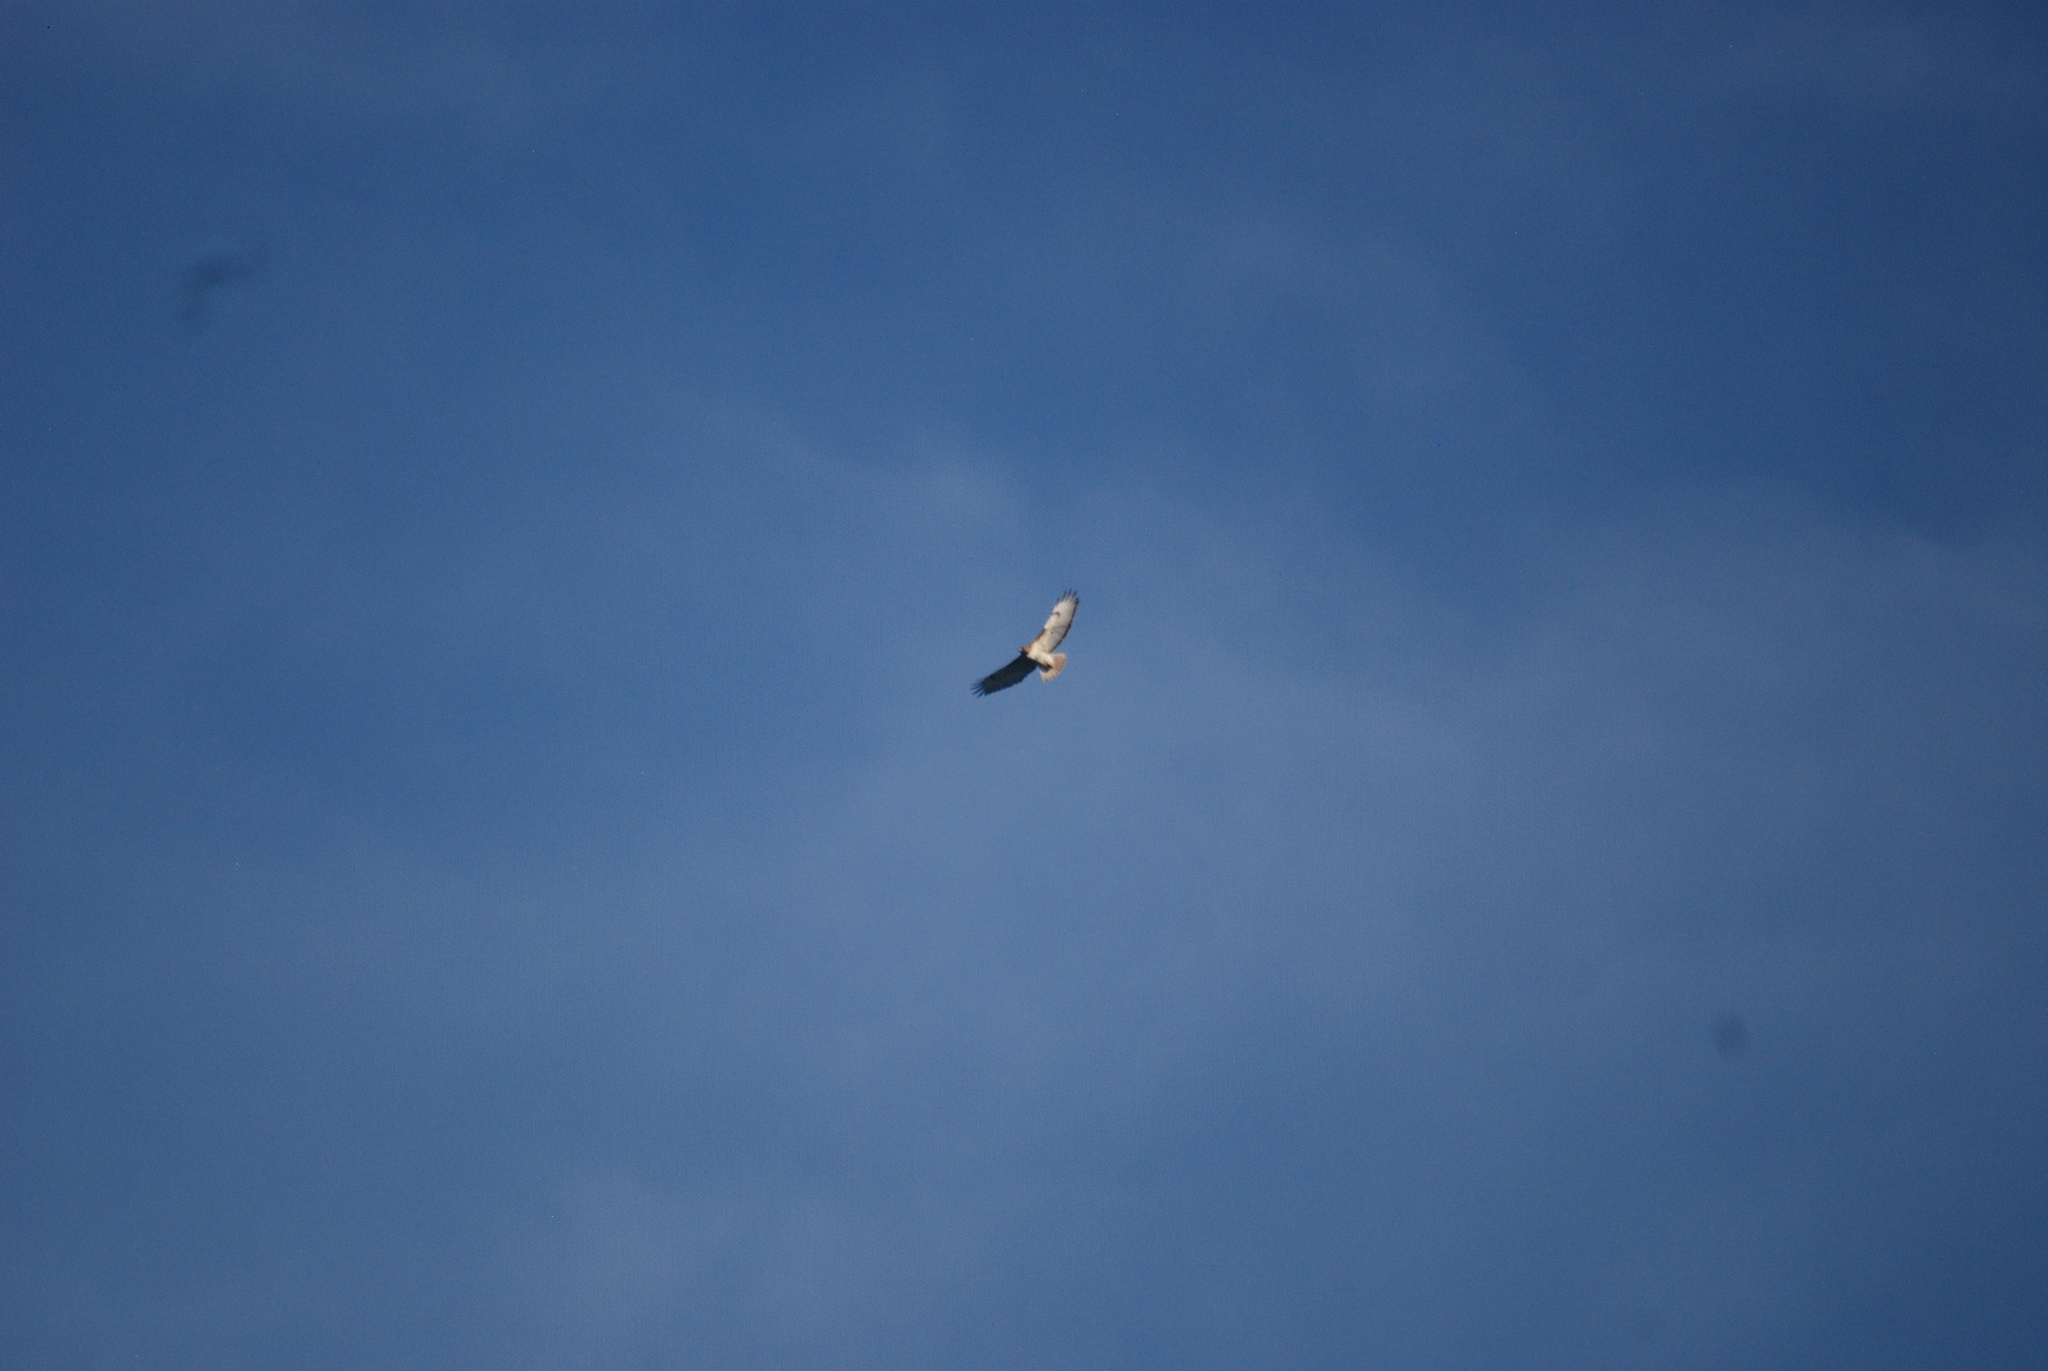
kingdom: Animalia
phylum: Chordata
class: Aves
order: Accipitriformes
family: Accipitridae
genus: Buteo
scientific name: Buteo jamaicensis
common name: Red-tailed hawk
